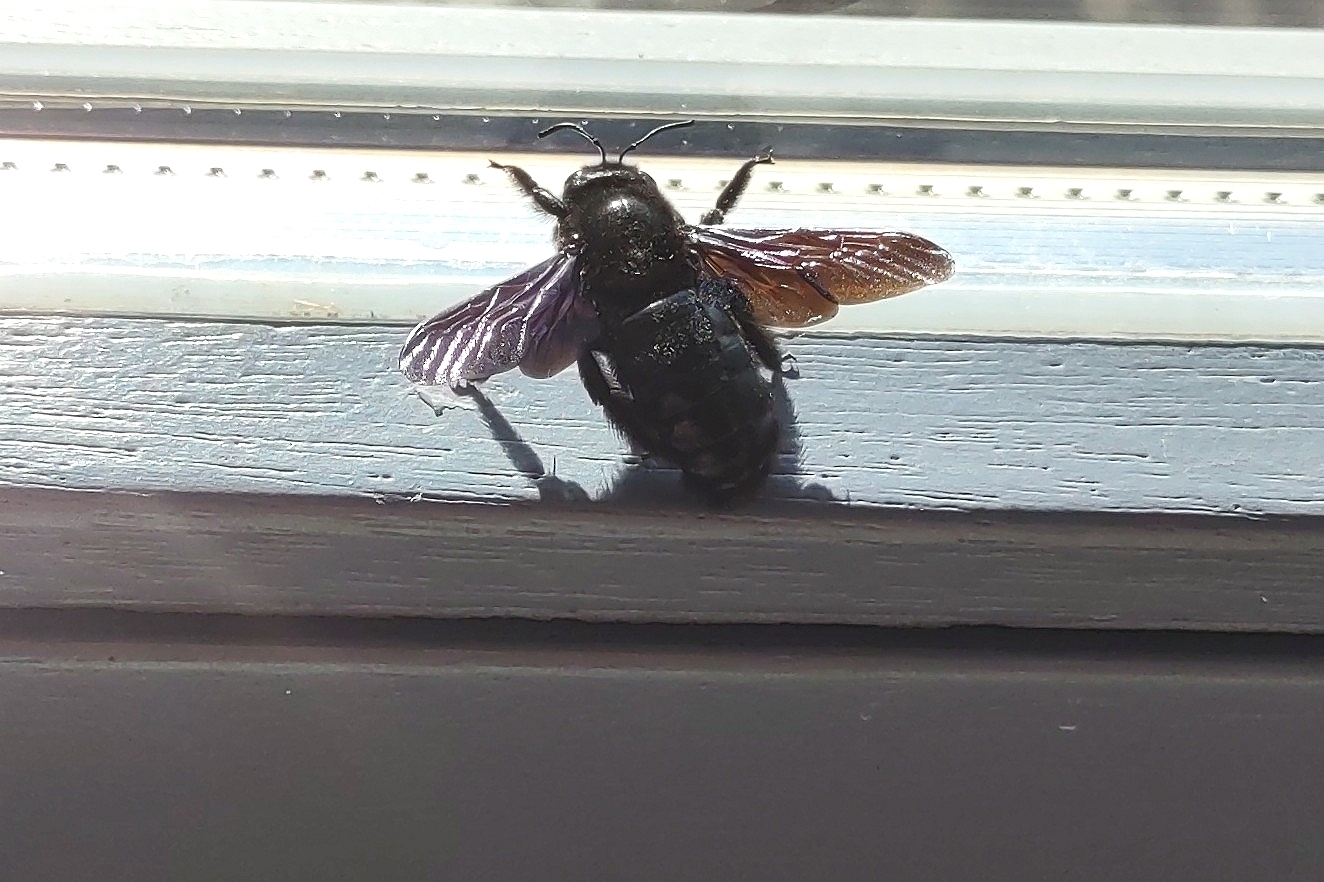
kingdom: Animalia
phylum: Arthropoda
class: Insecta
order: Hymenoptera
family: Apidae
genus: Xylocopa
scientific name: Xylocopa
